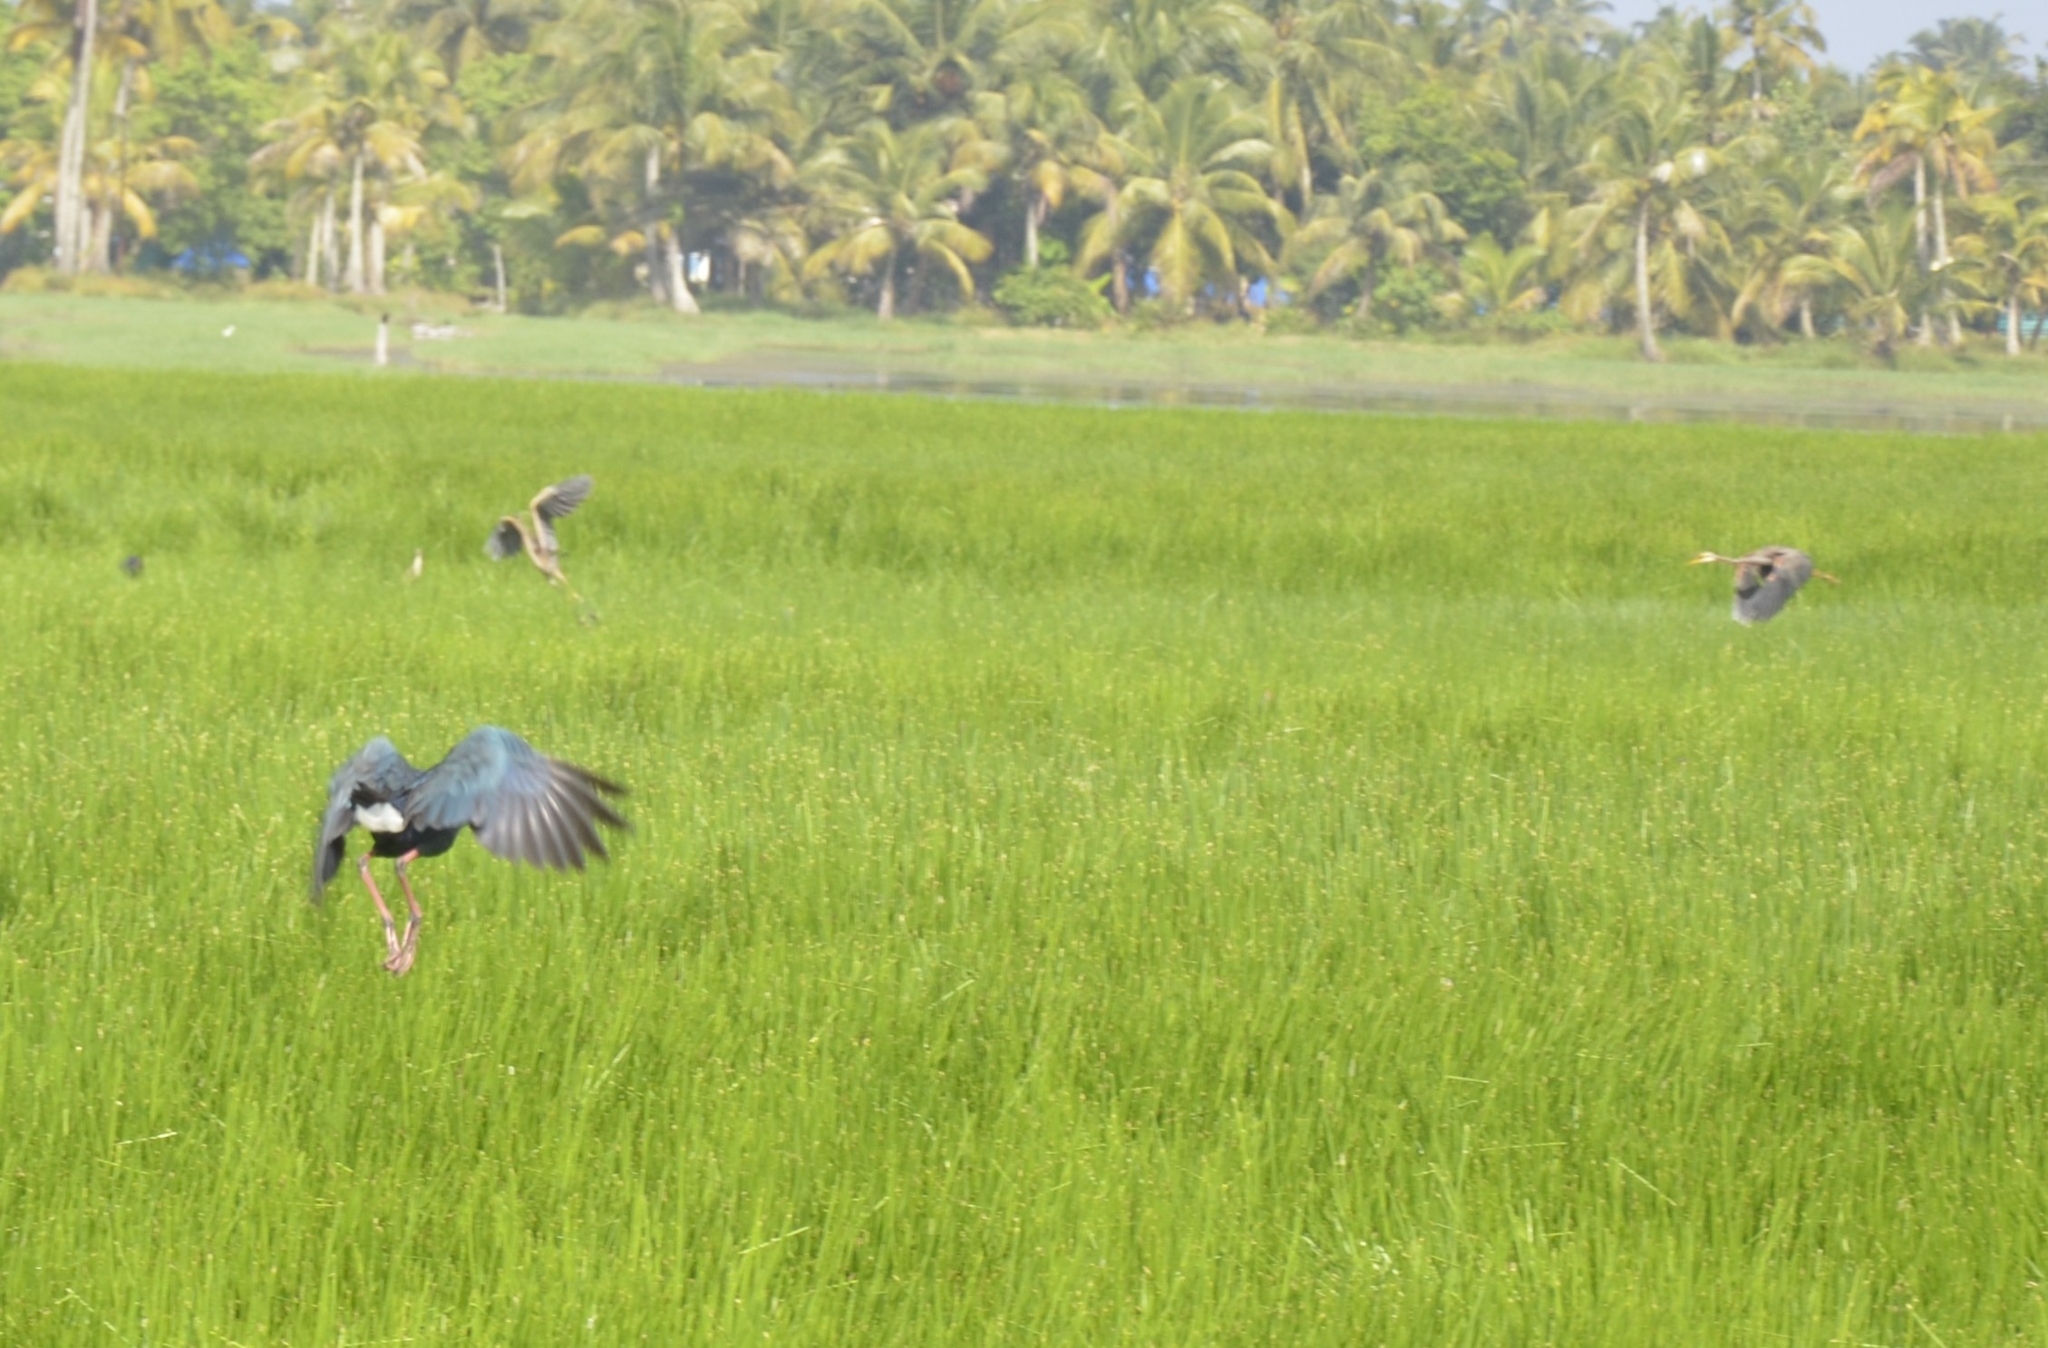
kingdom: Animalia
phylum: Chordata
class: Aves
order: Gruiformes
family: Rallidae
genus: Porphyrio
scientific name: Porphyrio porphyrio
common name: Purple swamphen
